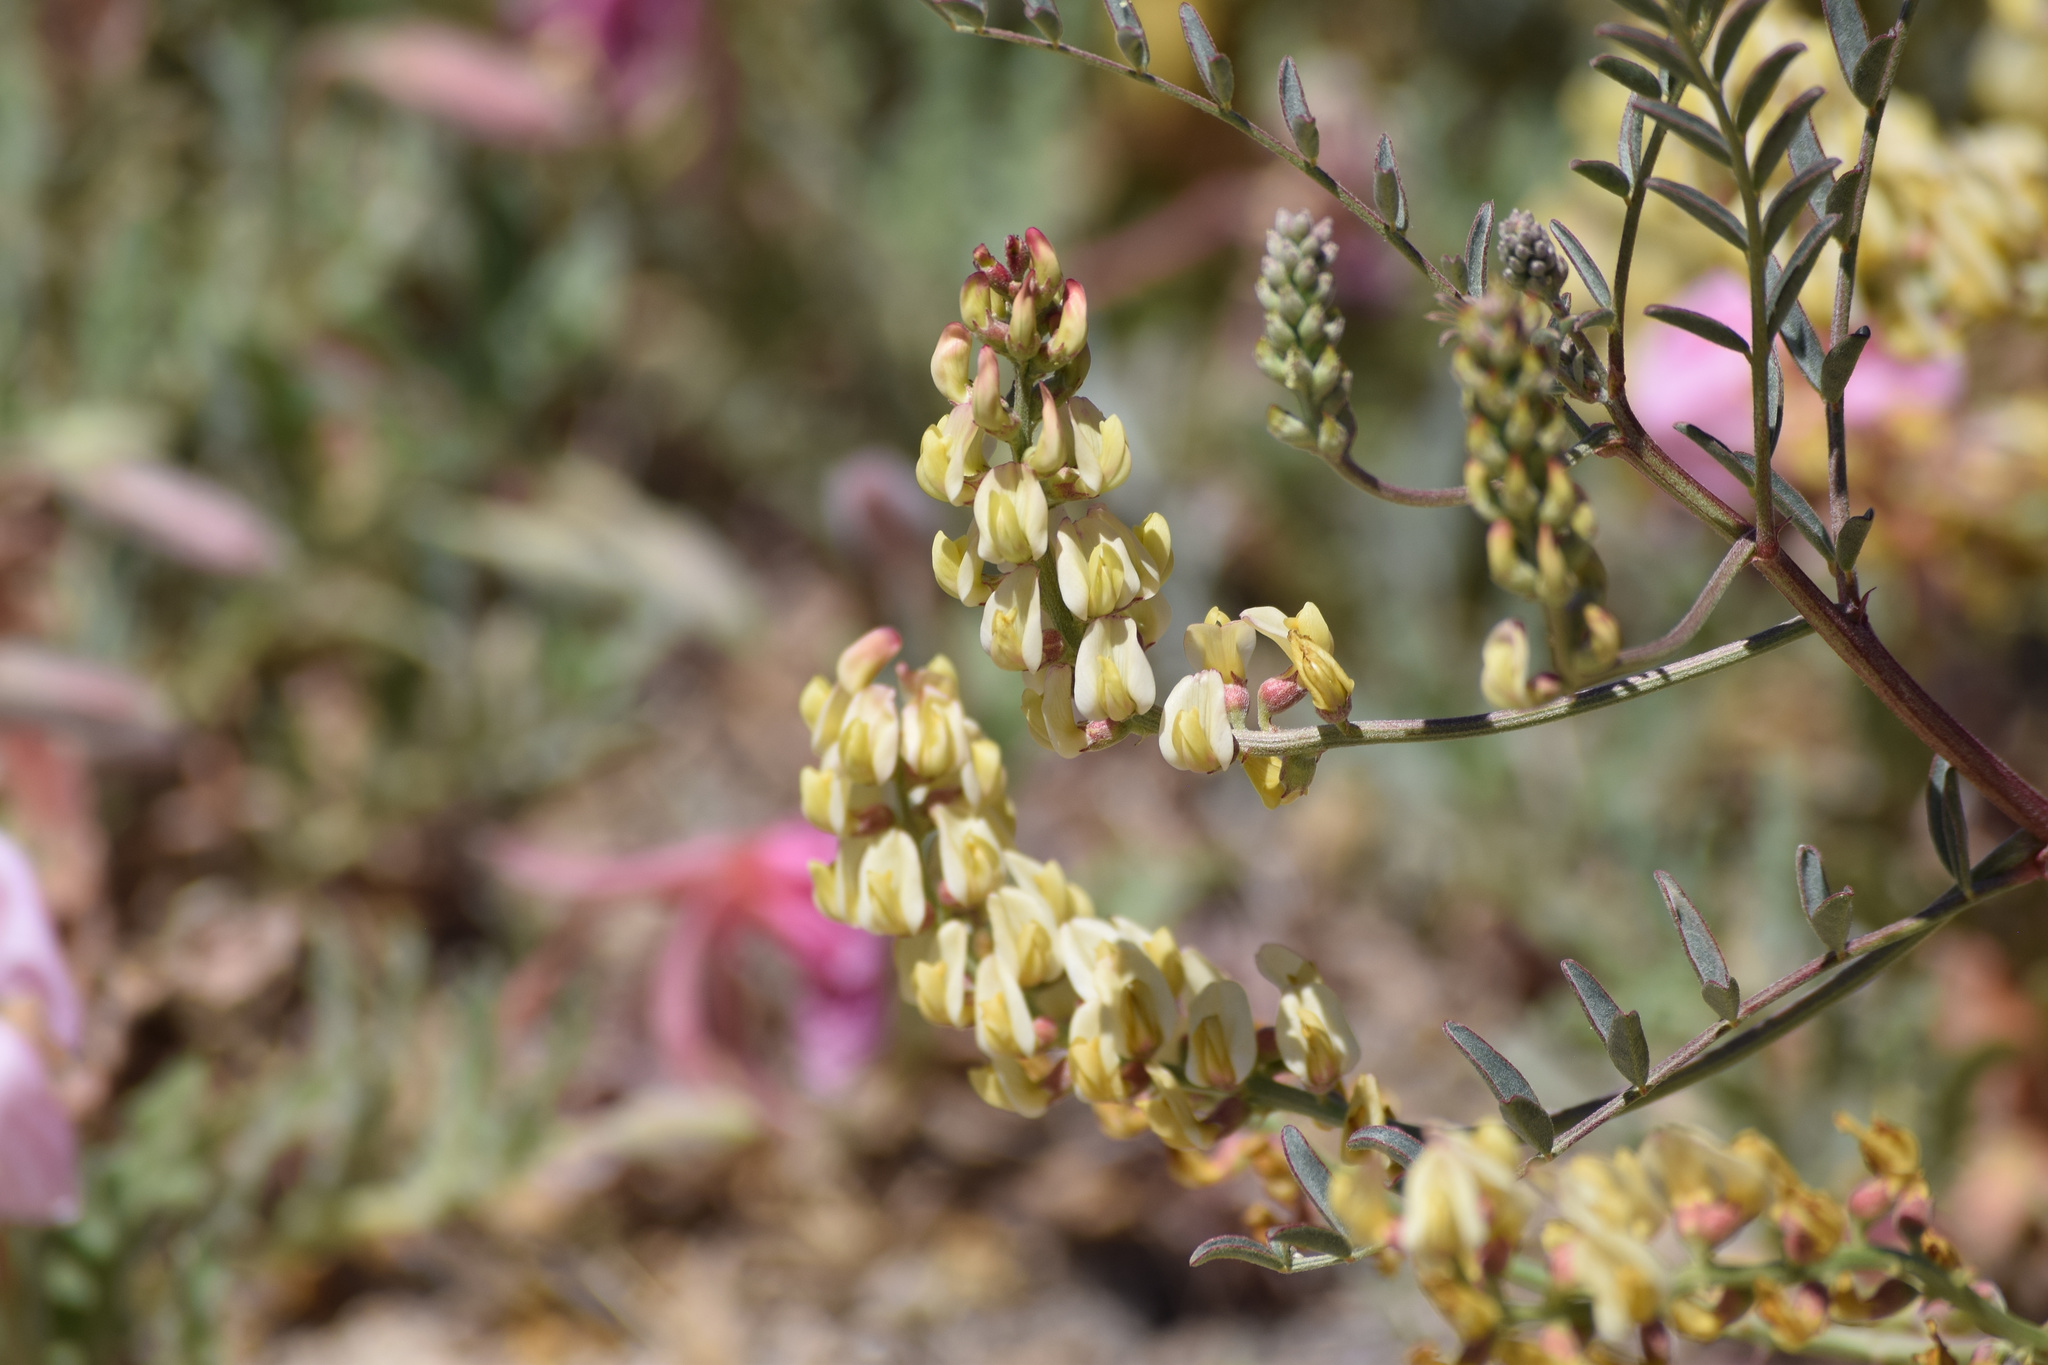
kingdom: Plantae
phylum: Tracheophyta
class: Magnoliopsida
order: Fabales
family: Fabaceae
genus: Astragalus
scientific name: Astragalus douglasii
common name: Jacumba milkvetch
